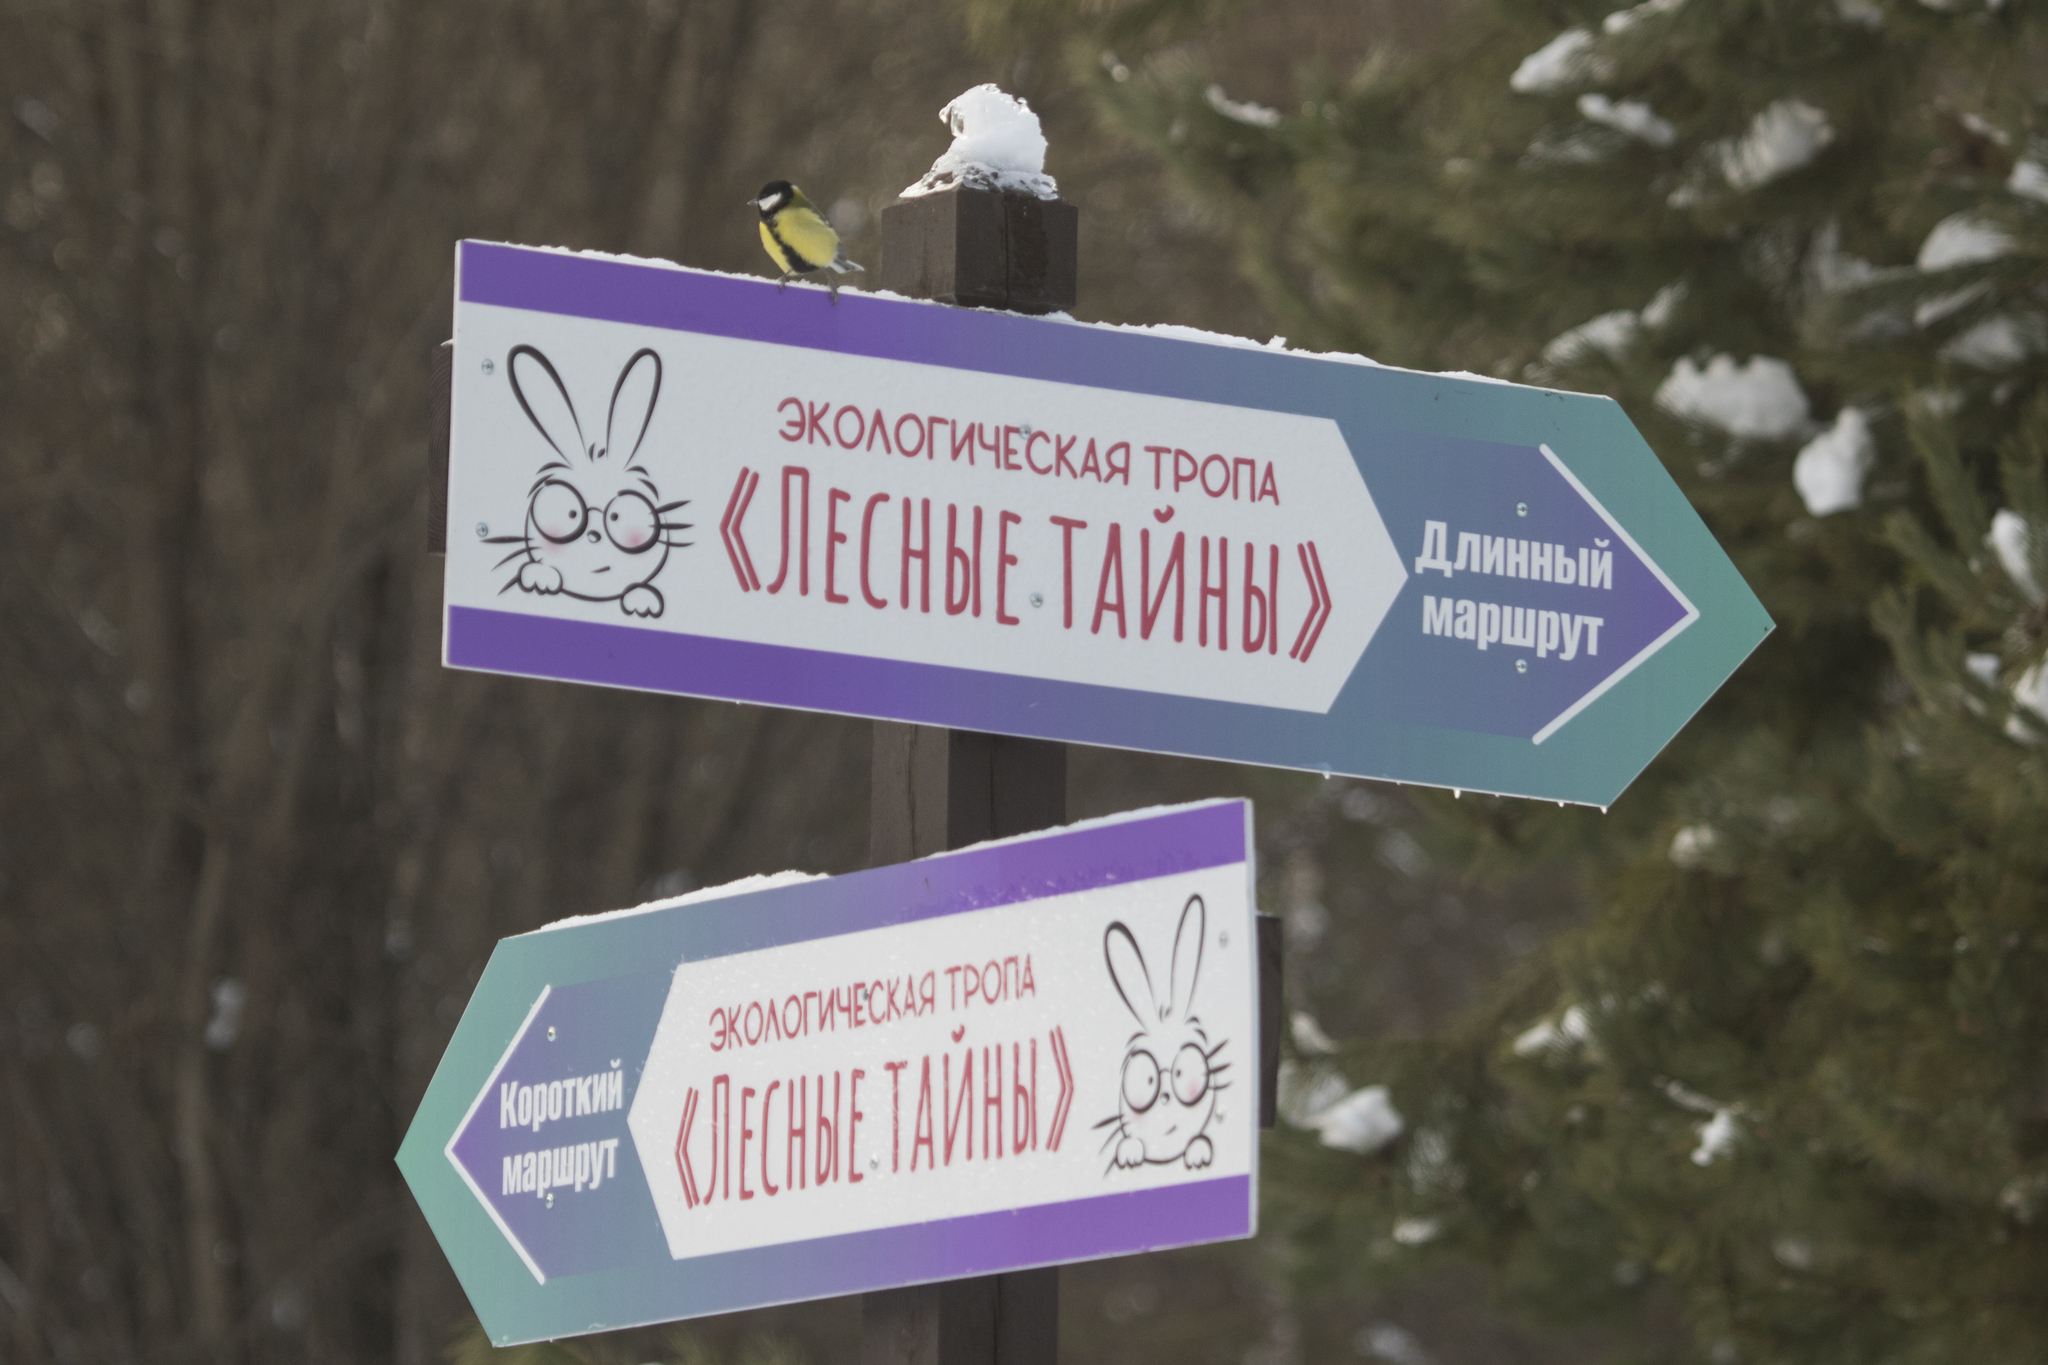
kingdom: Animalia
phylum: Chordata
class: Aves
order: Passeriformes
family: Paridae
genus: Parus
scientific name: Parus major
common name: Great tit
